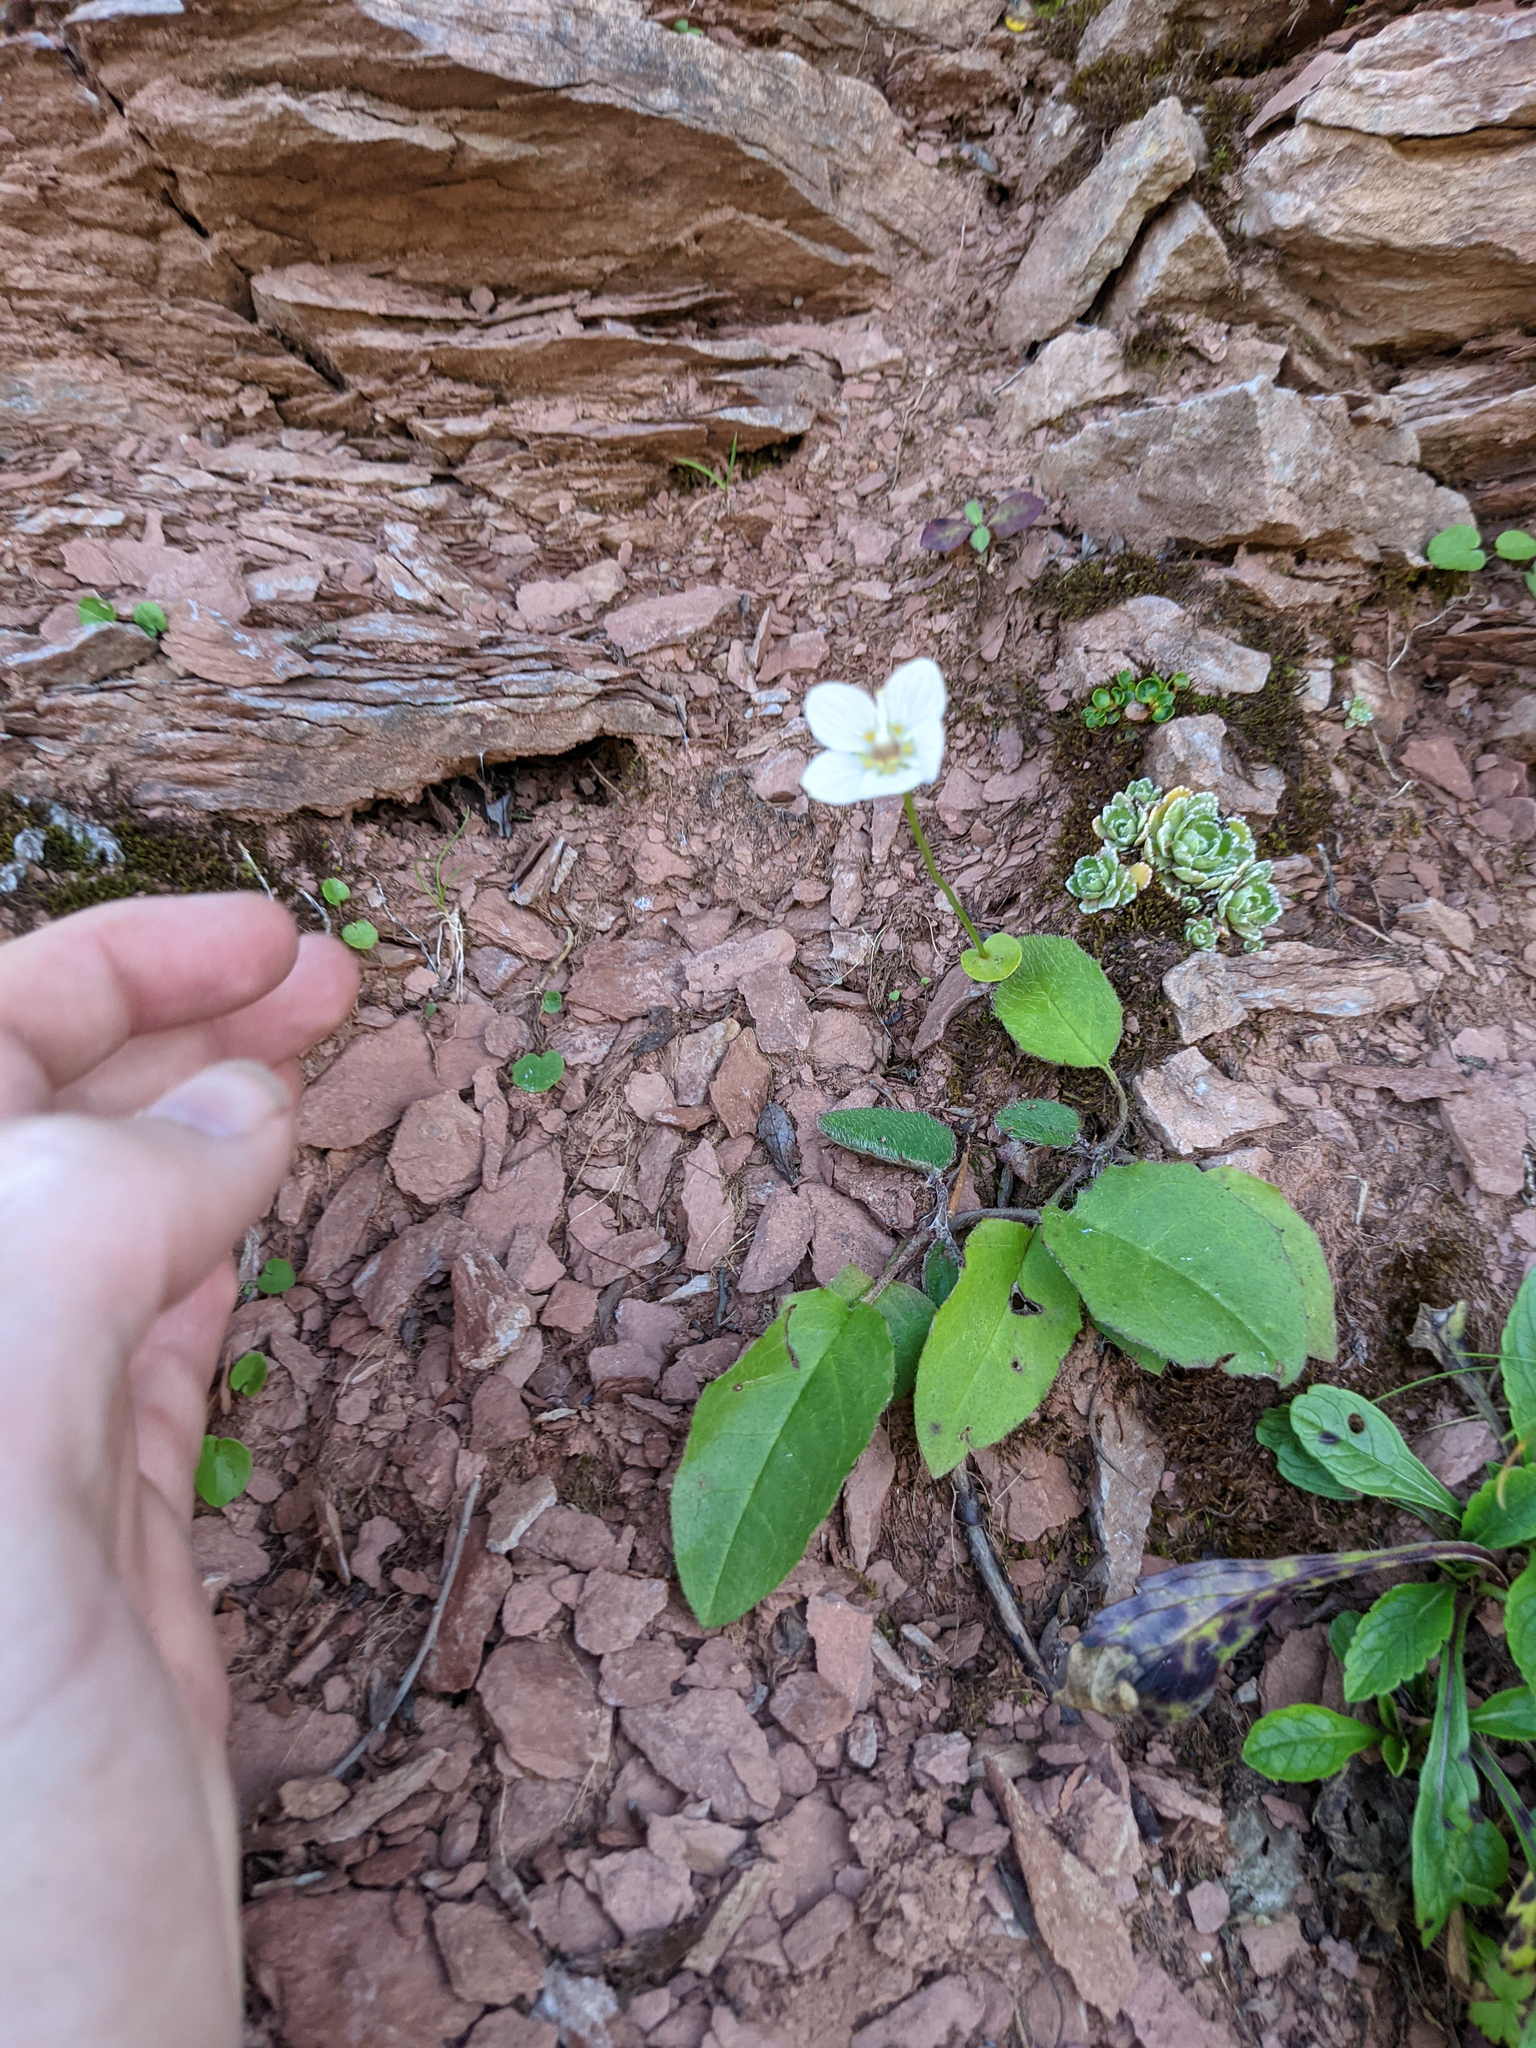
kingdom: Plantae
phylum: Tracheophyta
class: Magnoliopsida
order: Celastrales
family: Parnassiaceae
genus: Parnassia
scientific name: Parnassia palustris
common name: Grass-of-parnassus
